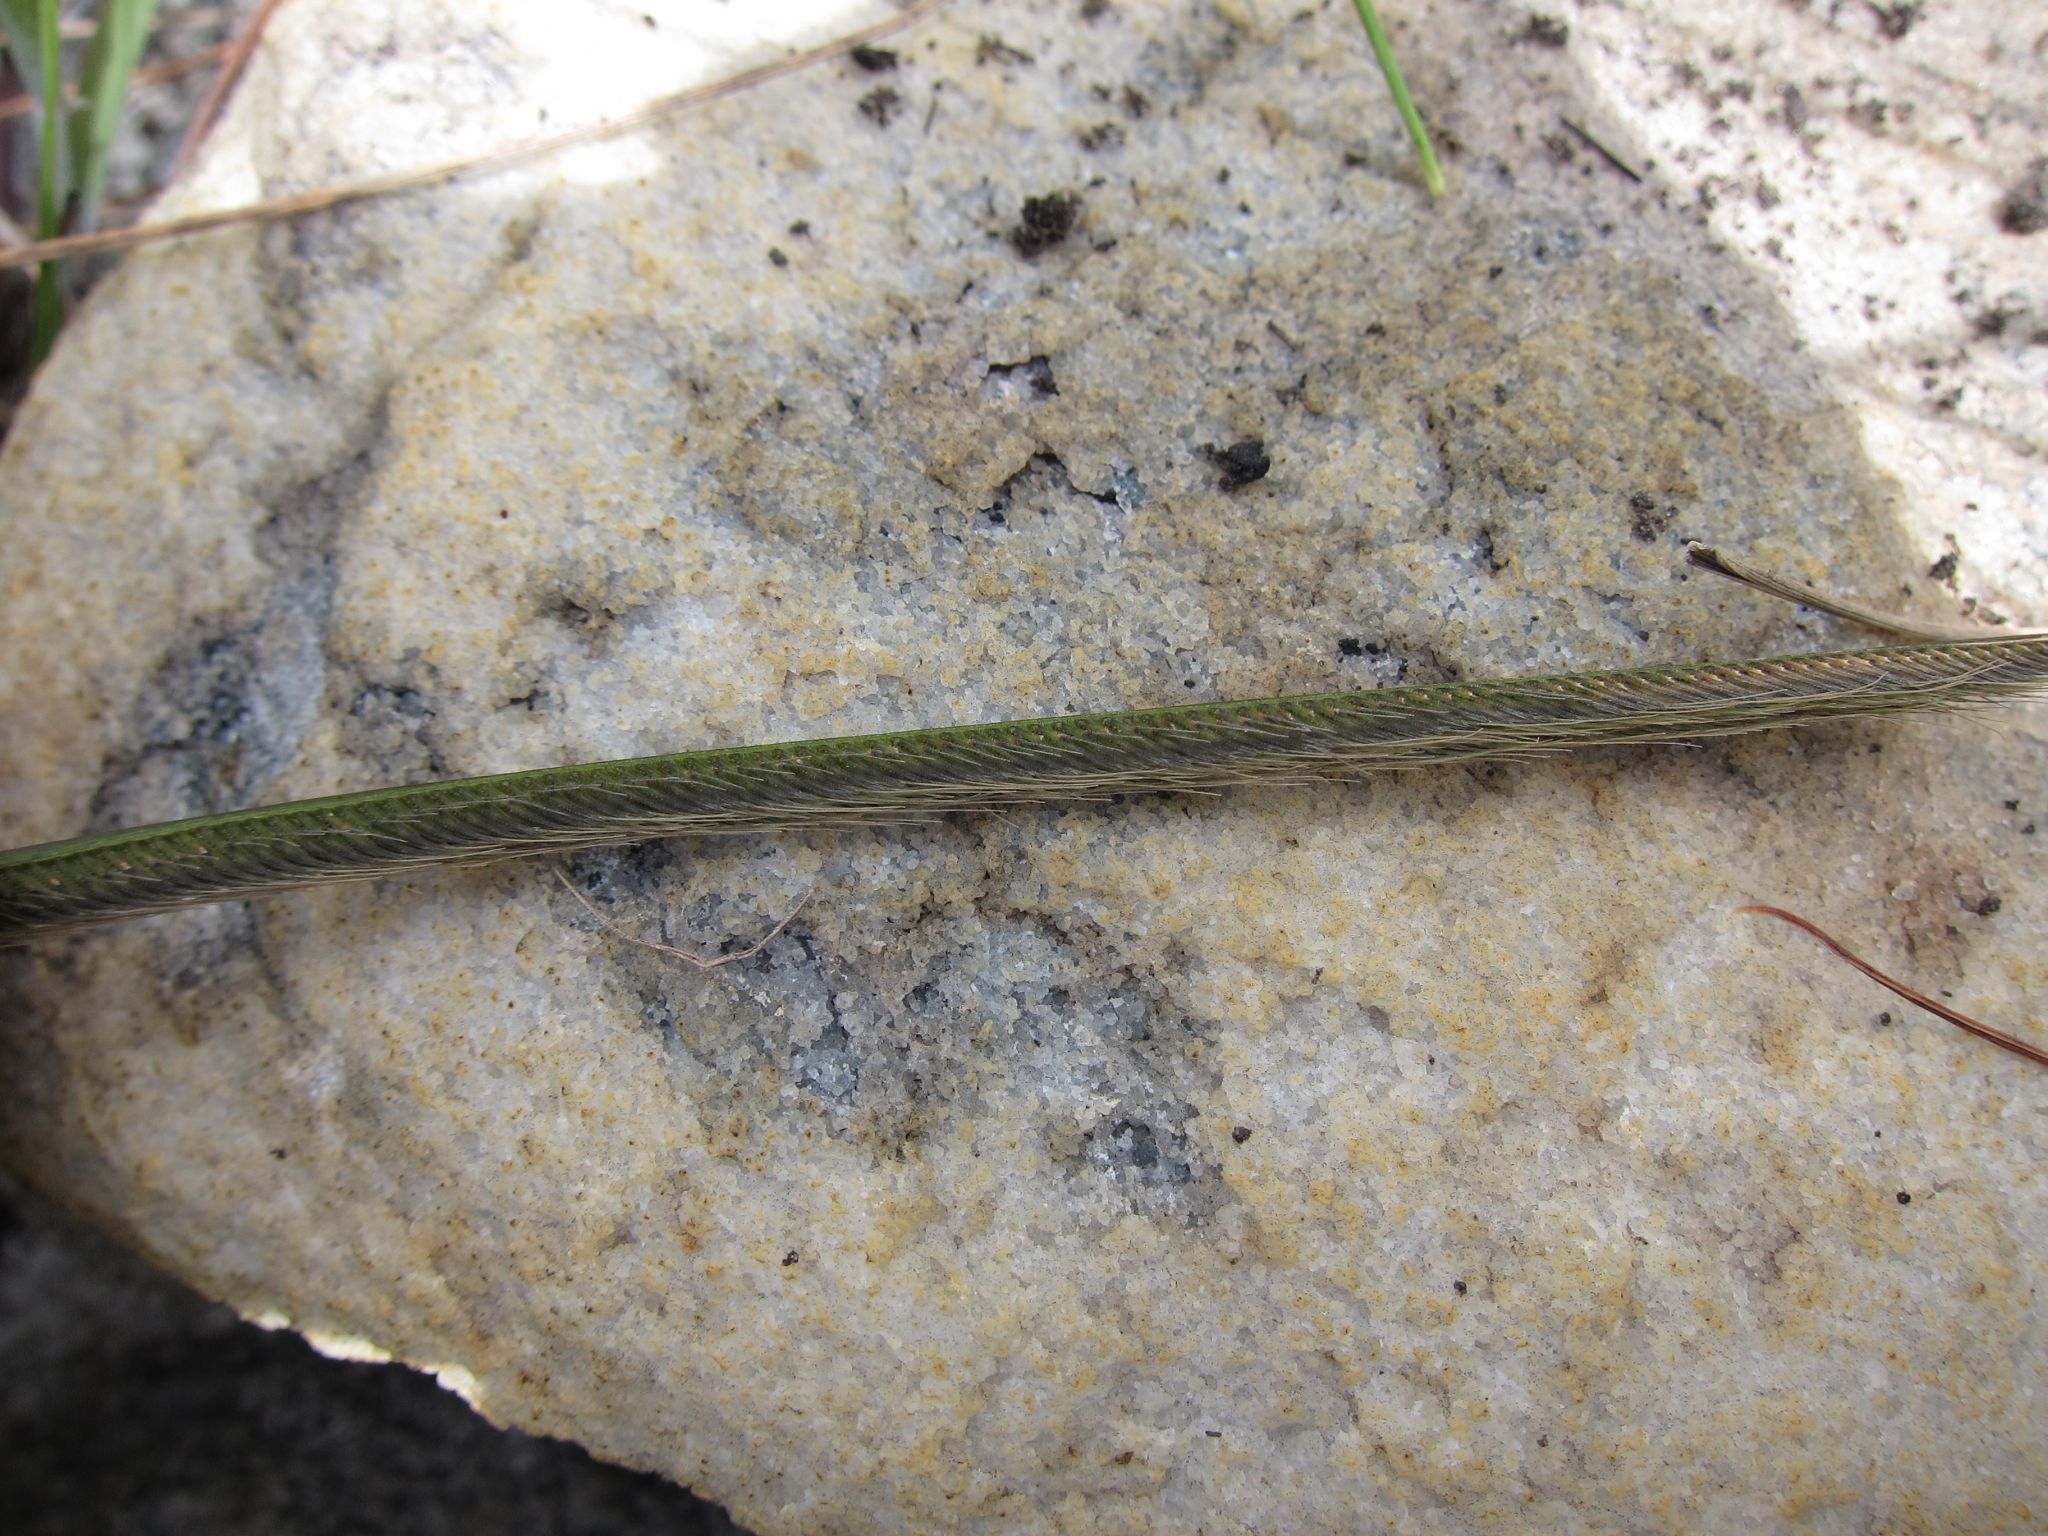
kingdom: Plantae
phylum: Tracheophyta
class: Liliopsida
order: Poales
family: Poaceae
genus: Ctenium
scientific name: Ctenium concinnum
